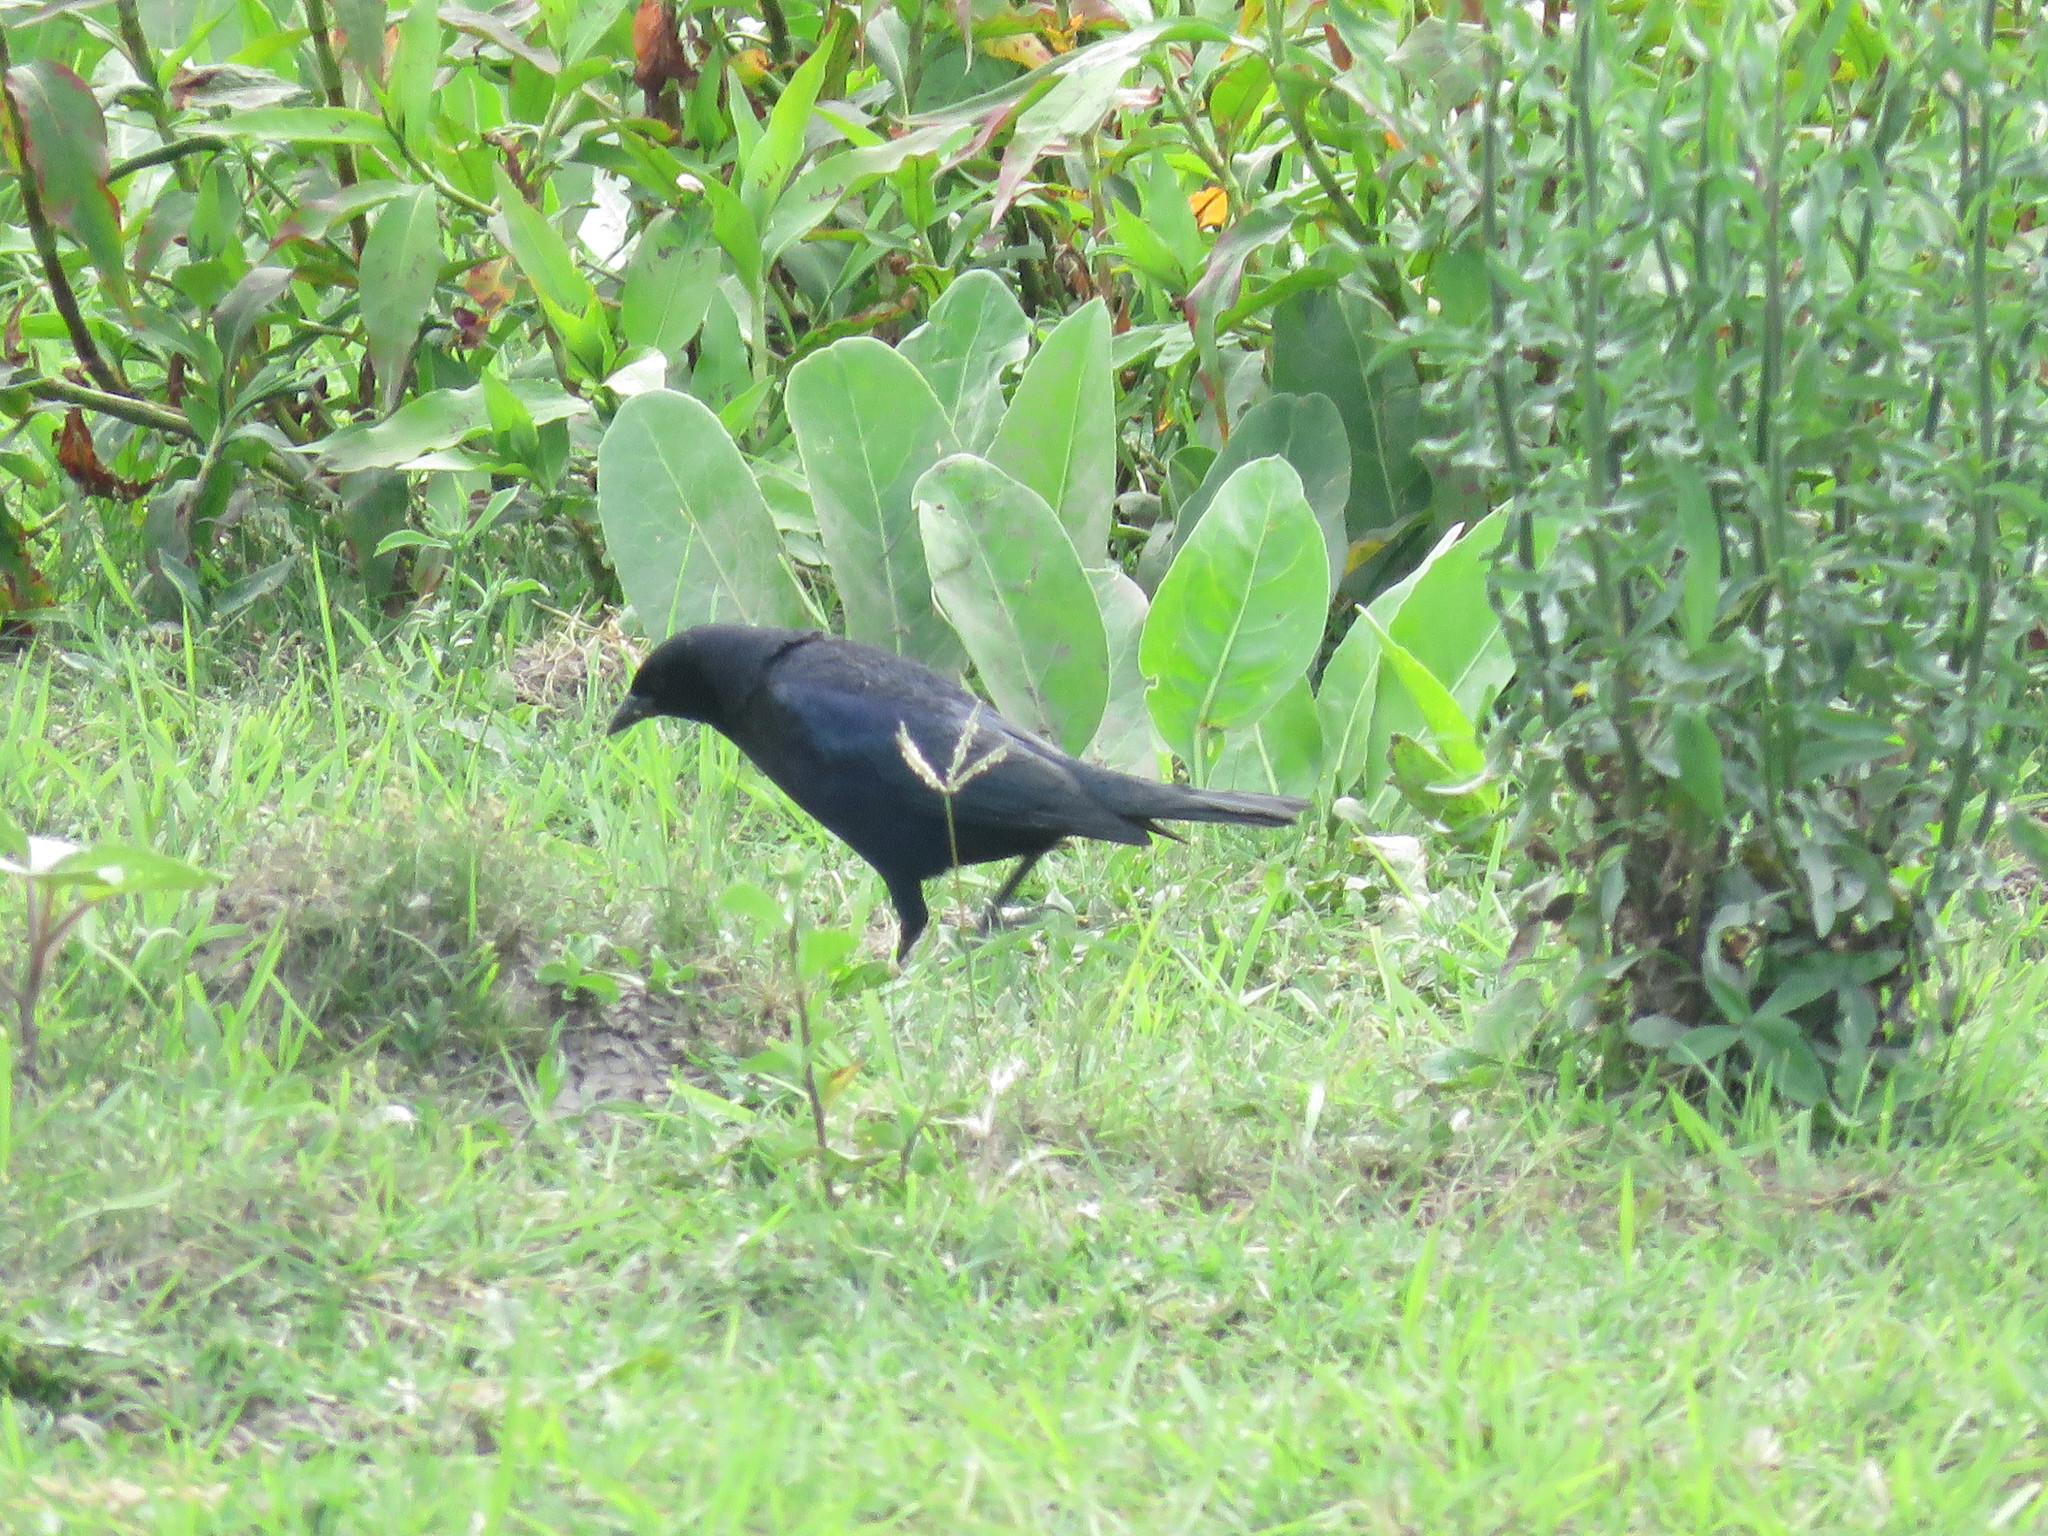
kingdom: Animalia
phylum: Chordata
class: Aves
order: Passeriformes
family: Icteridae
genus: Molothrus
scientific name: Molothrus bonariensis
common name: Shiny cowbird
